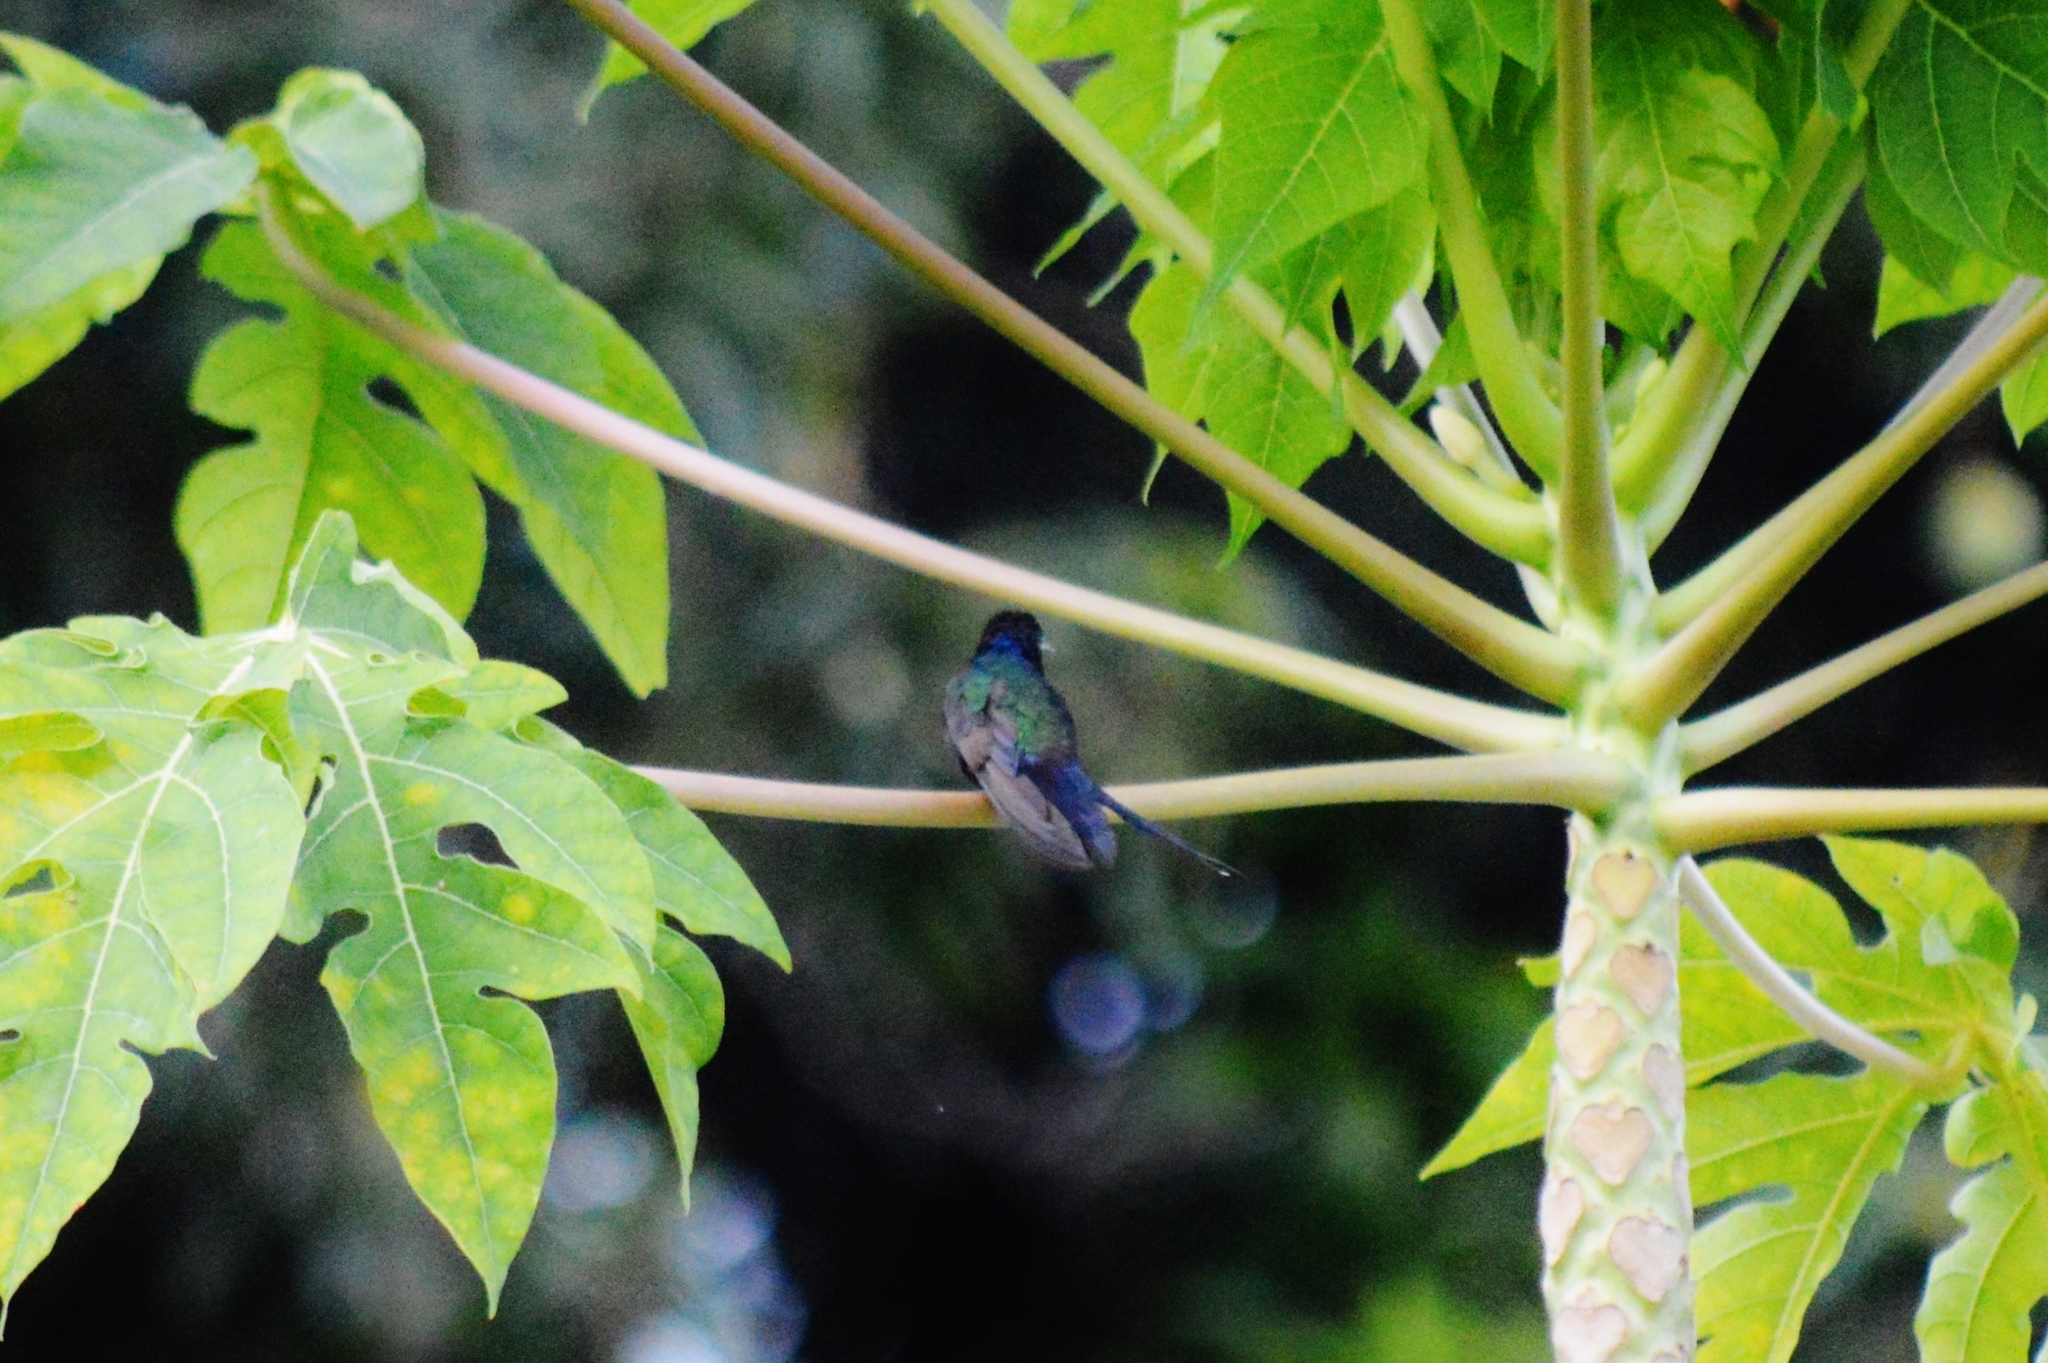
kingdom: Animalia
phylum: Chordata
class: Aves
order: Apodiformes
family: Trochilidae
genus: Eupetomena
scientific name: Eupetomena macroura
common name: Swallow-tailed hummingbird
